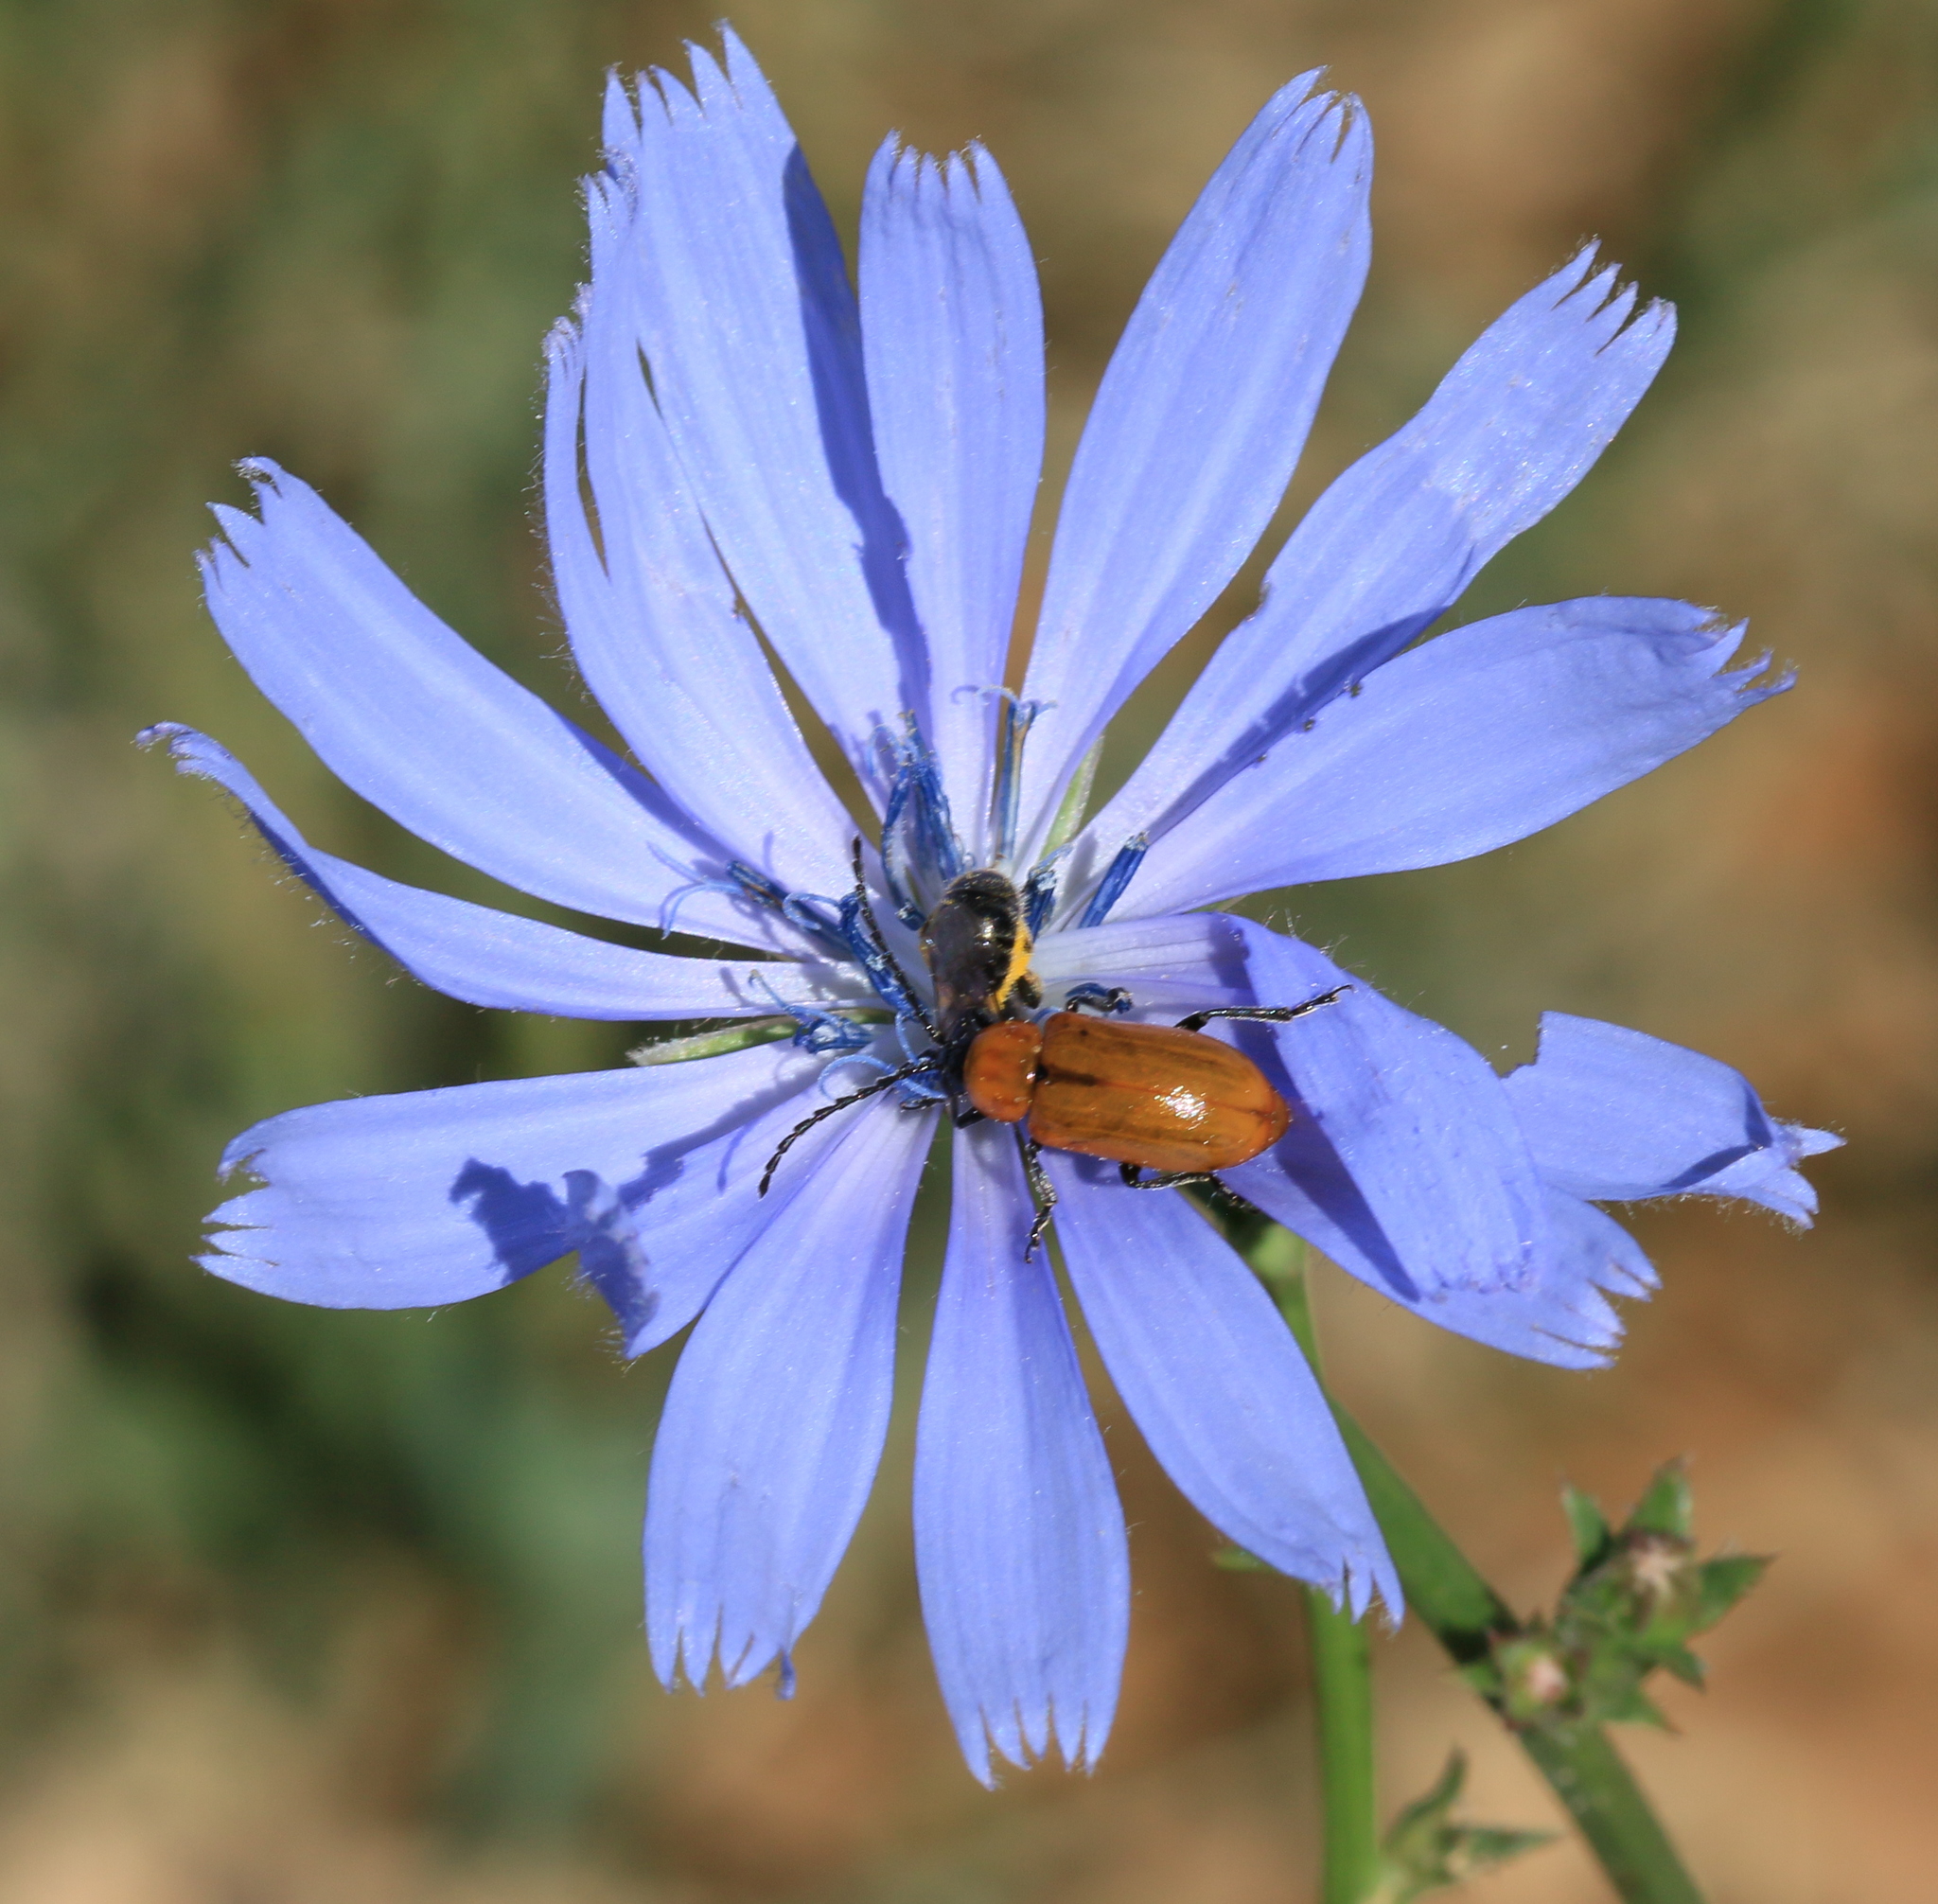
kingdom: Plantae
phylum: Tracheophyta
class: Magnoliopsida
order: Asterales
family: Asteraceae
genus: Cichorium
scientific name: Cichorium intybus
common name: Chicory
